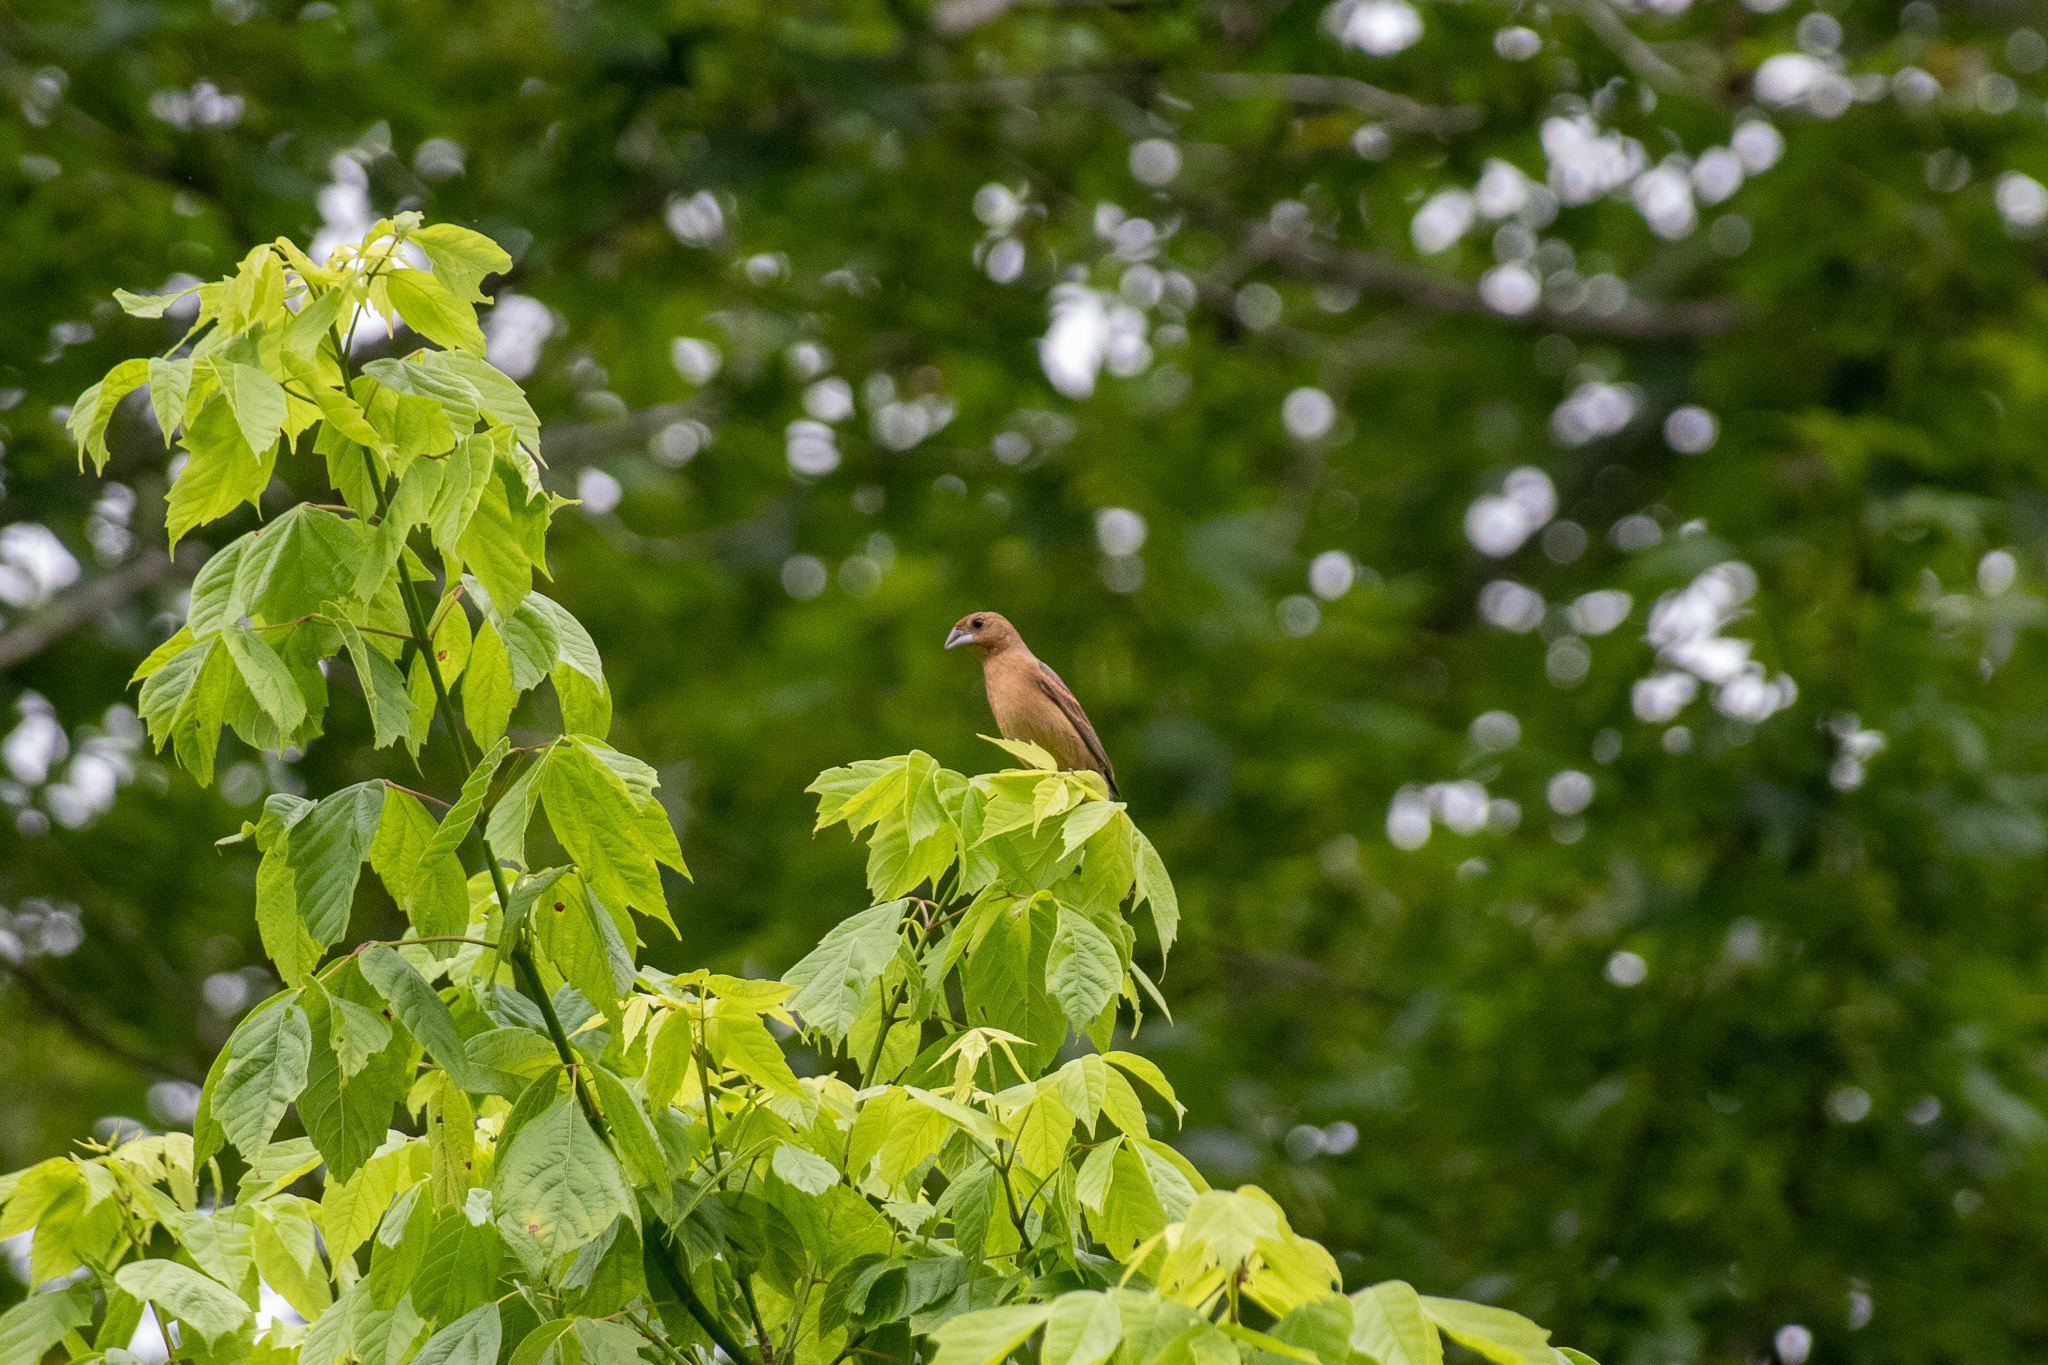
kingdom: Animalia
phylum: Chordata
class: Aves
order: Passeriformes
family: Cardinalidae
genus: Passerina
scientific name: Passerina caerulea
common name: Blue grosbeak
